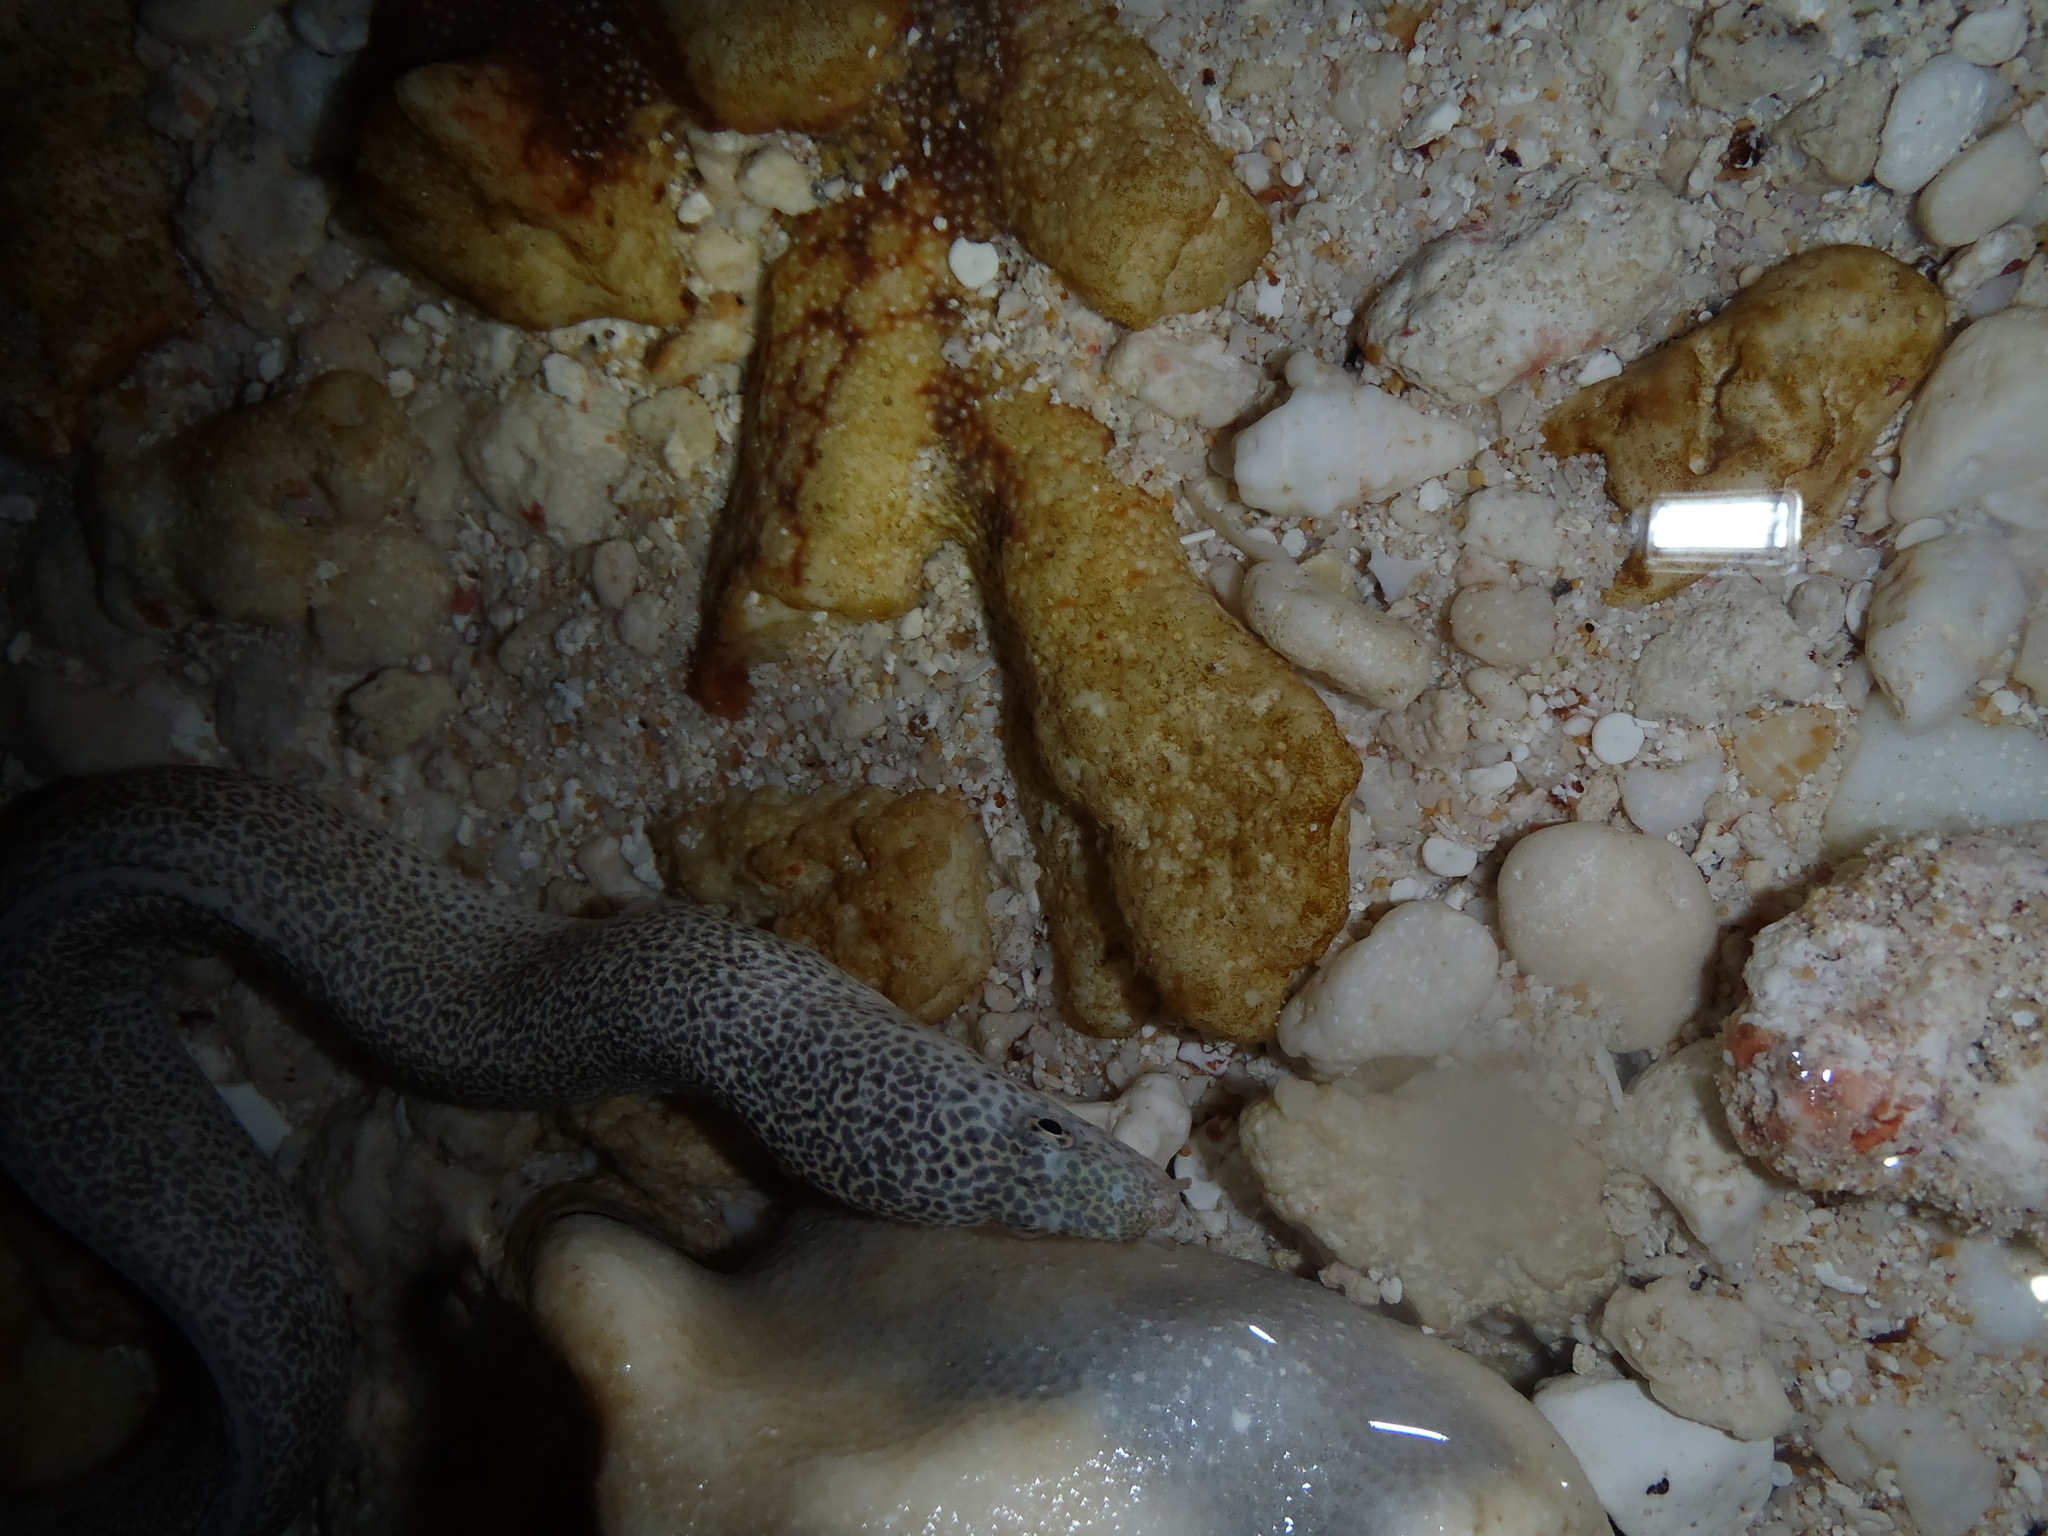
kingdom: Animalia
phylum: Chordata
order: Anguilliformes
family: Muraenidae
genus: Gymnothorax
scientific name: Gymnothorax pictus
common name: Peppered moray
